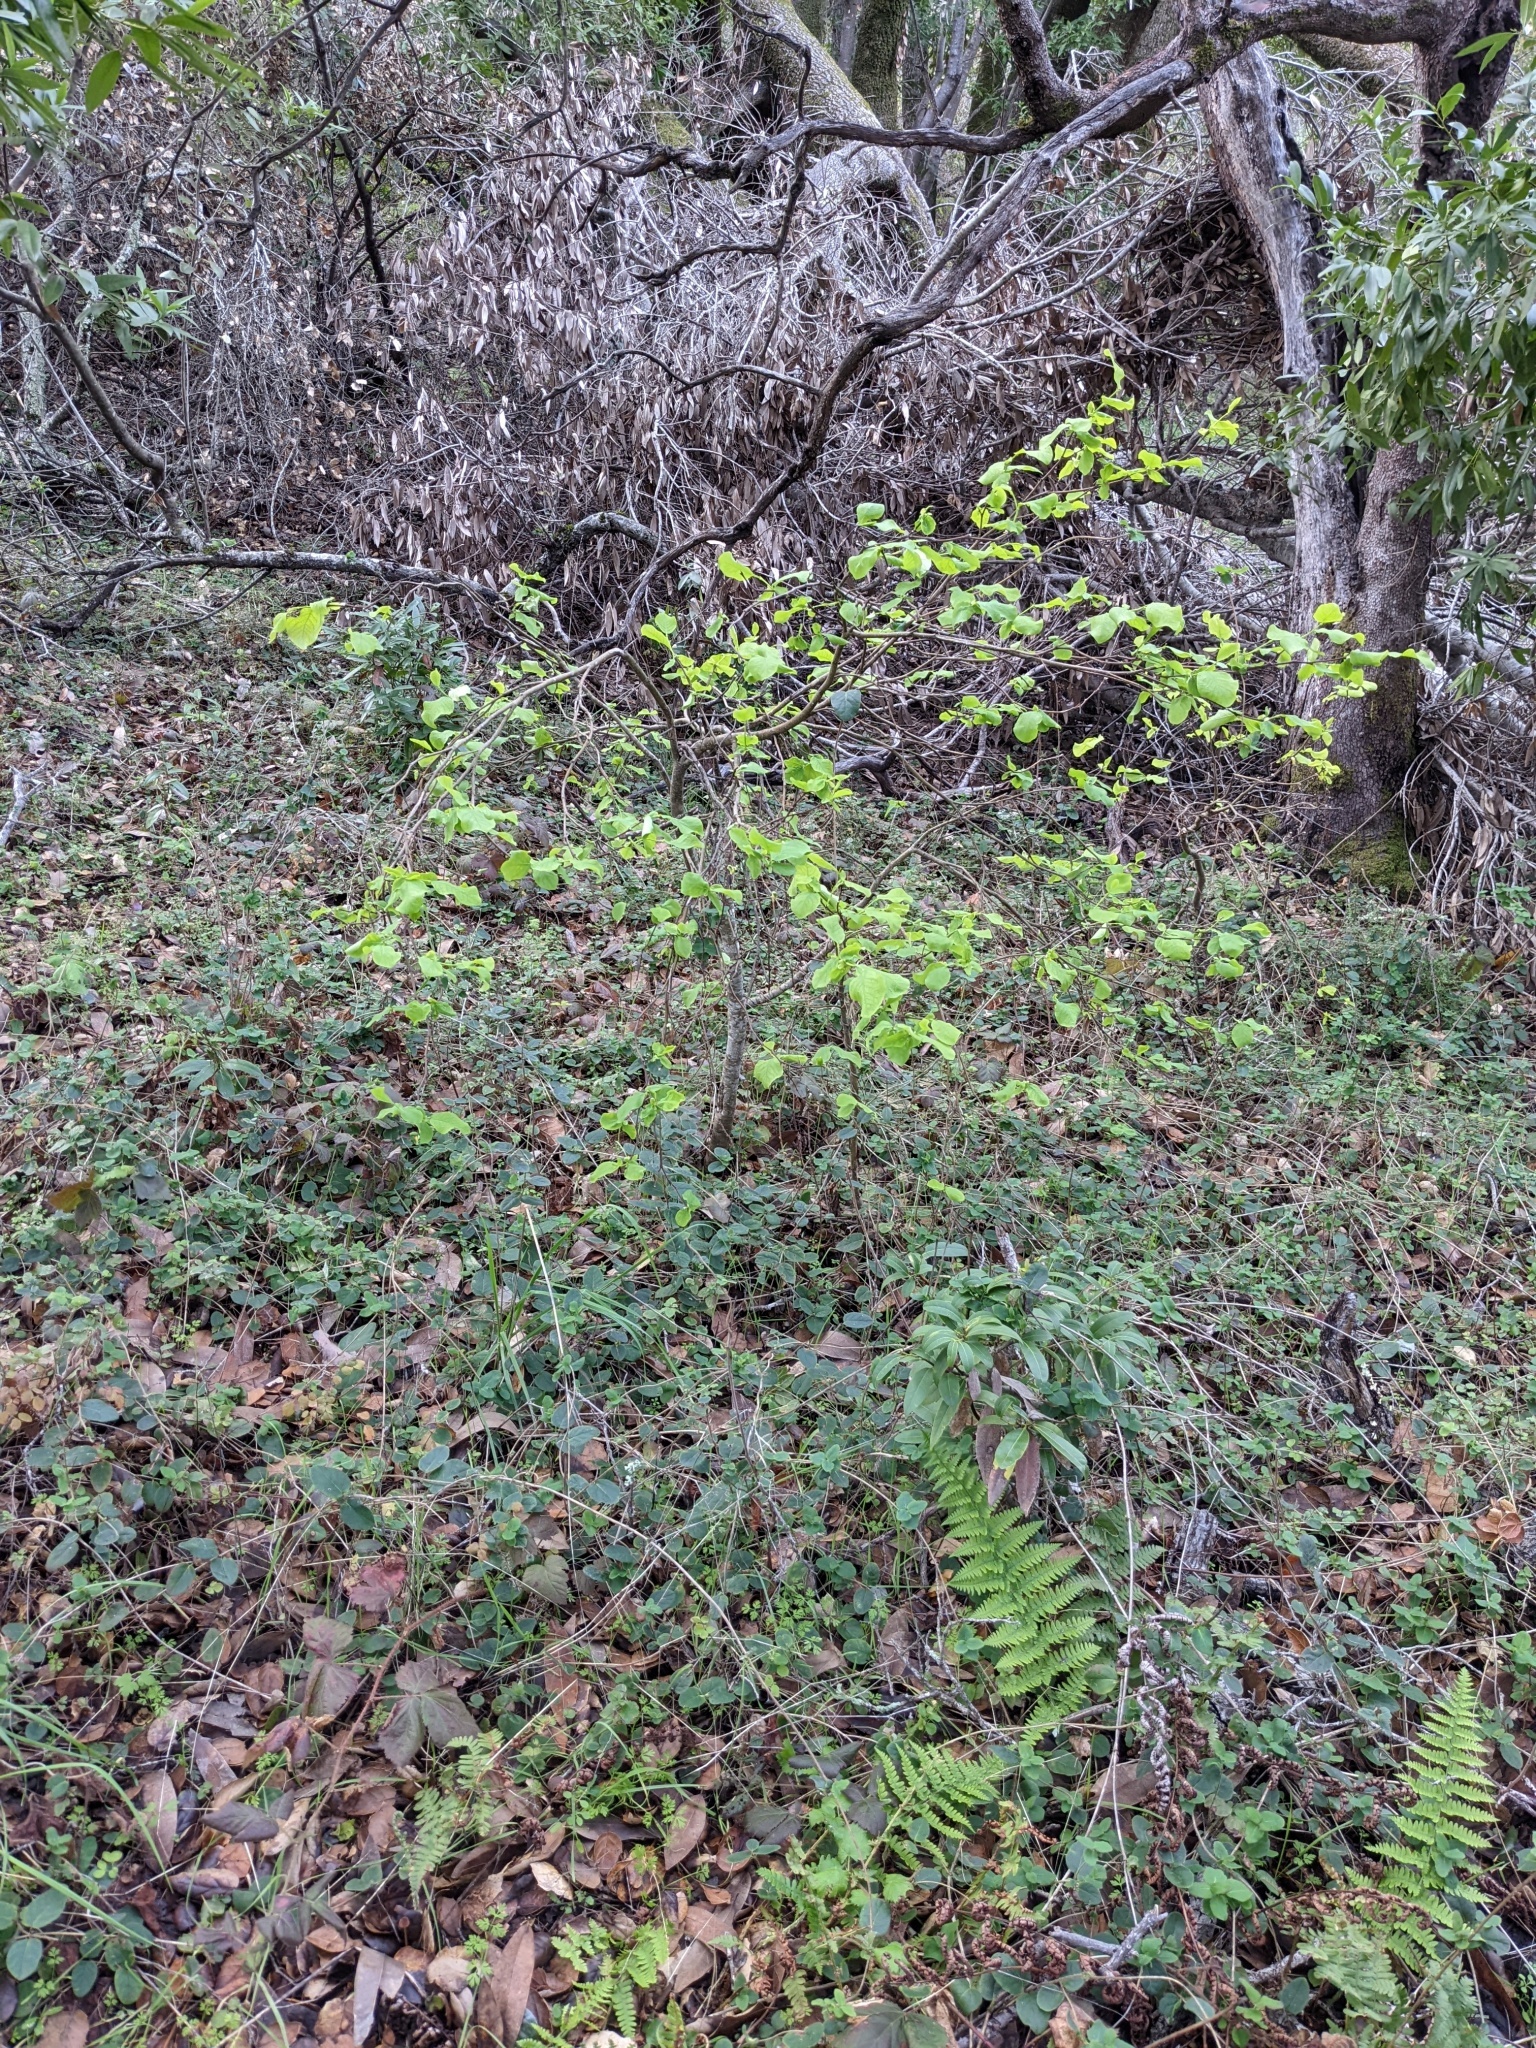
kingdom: Plantae
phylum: Tracheophyta
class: Magnoliopsida
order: Malvales
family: Thymelaeaceae
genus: Dirca
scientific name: Dirca occidentalis
